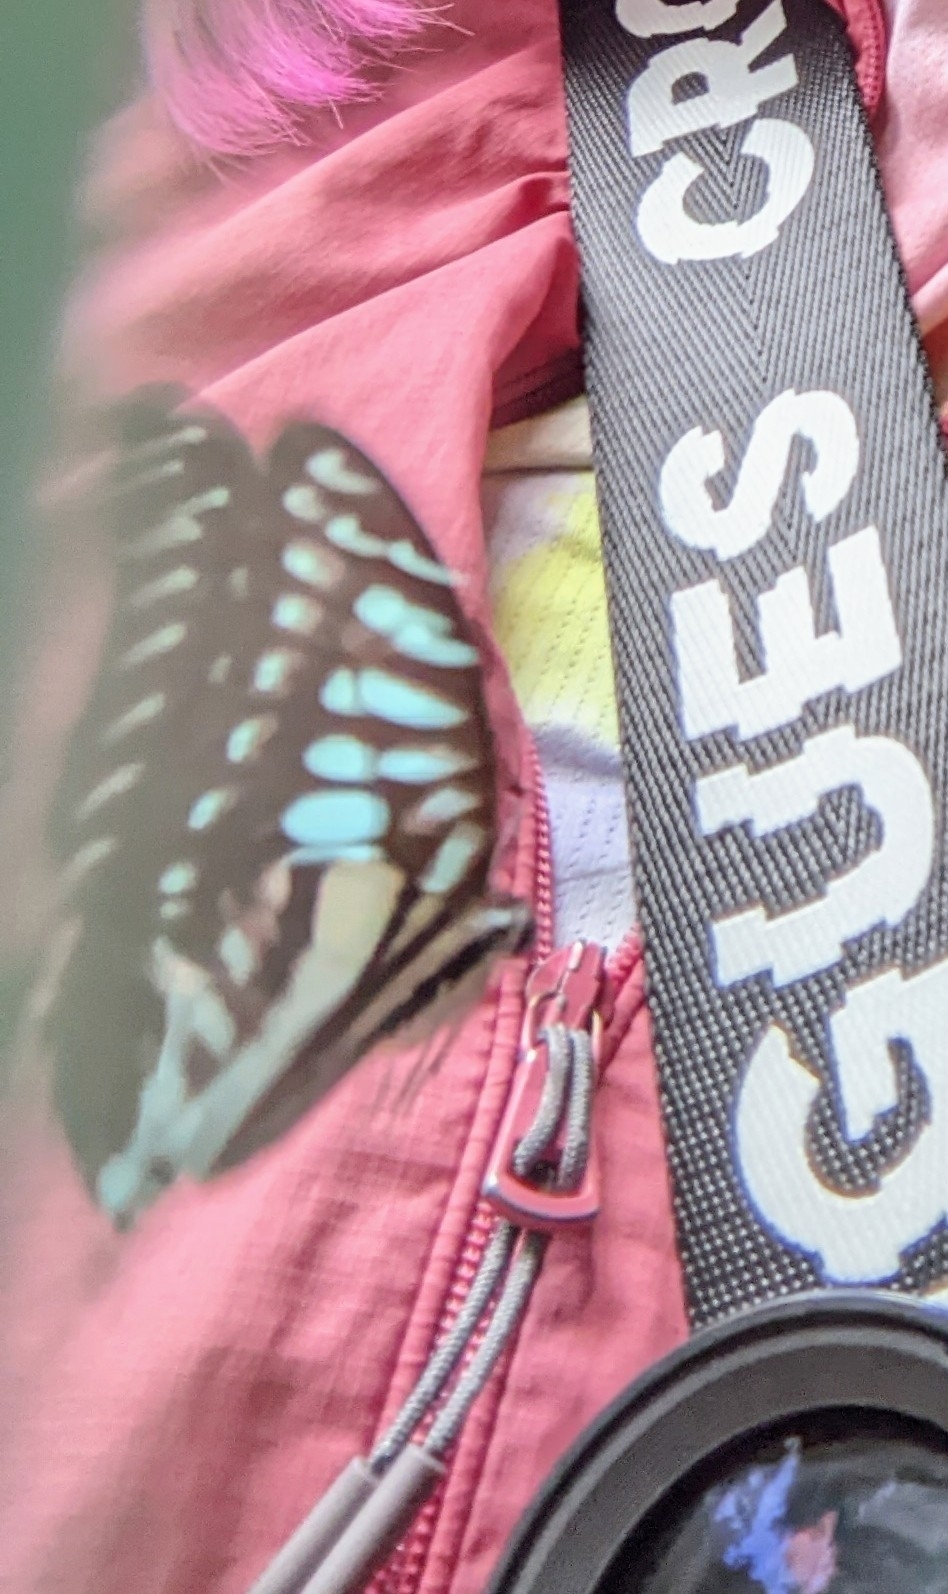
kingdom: Animalia
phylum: Arthropoda
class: Insecta
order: Lepidoptera
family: Papilionidae
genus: Graphium
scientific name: Graphium evemon
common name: Lesser jay
